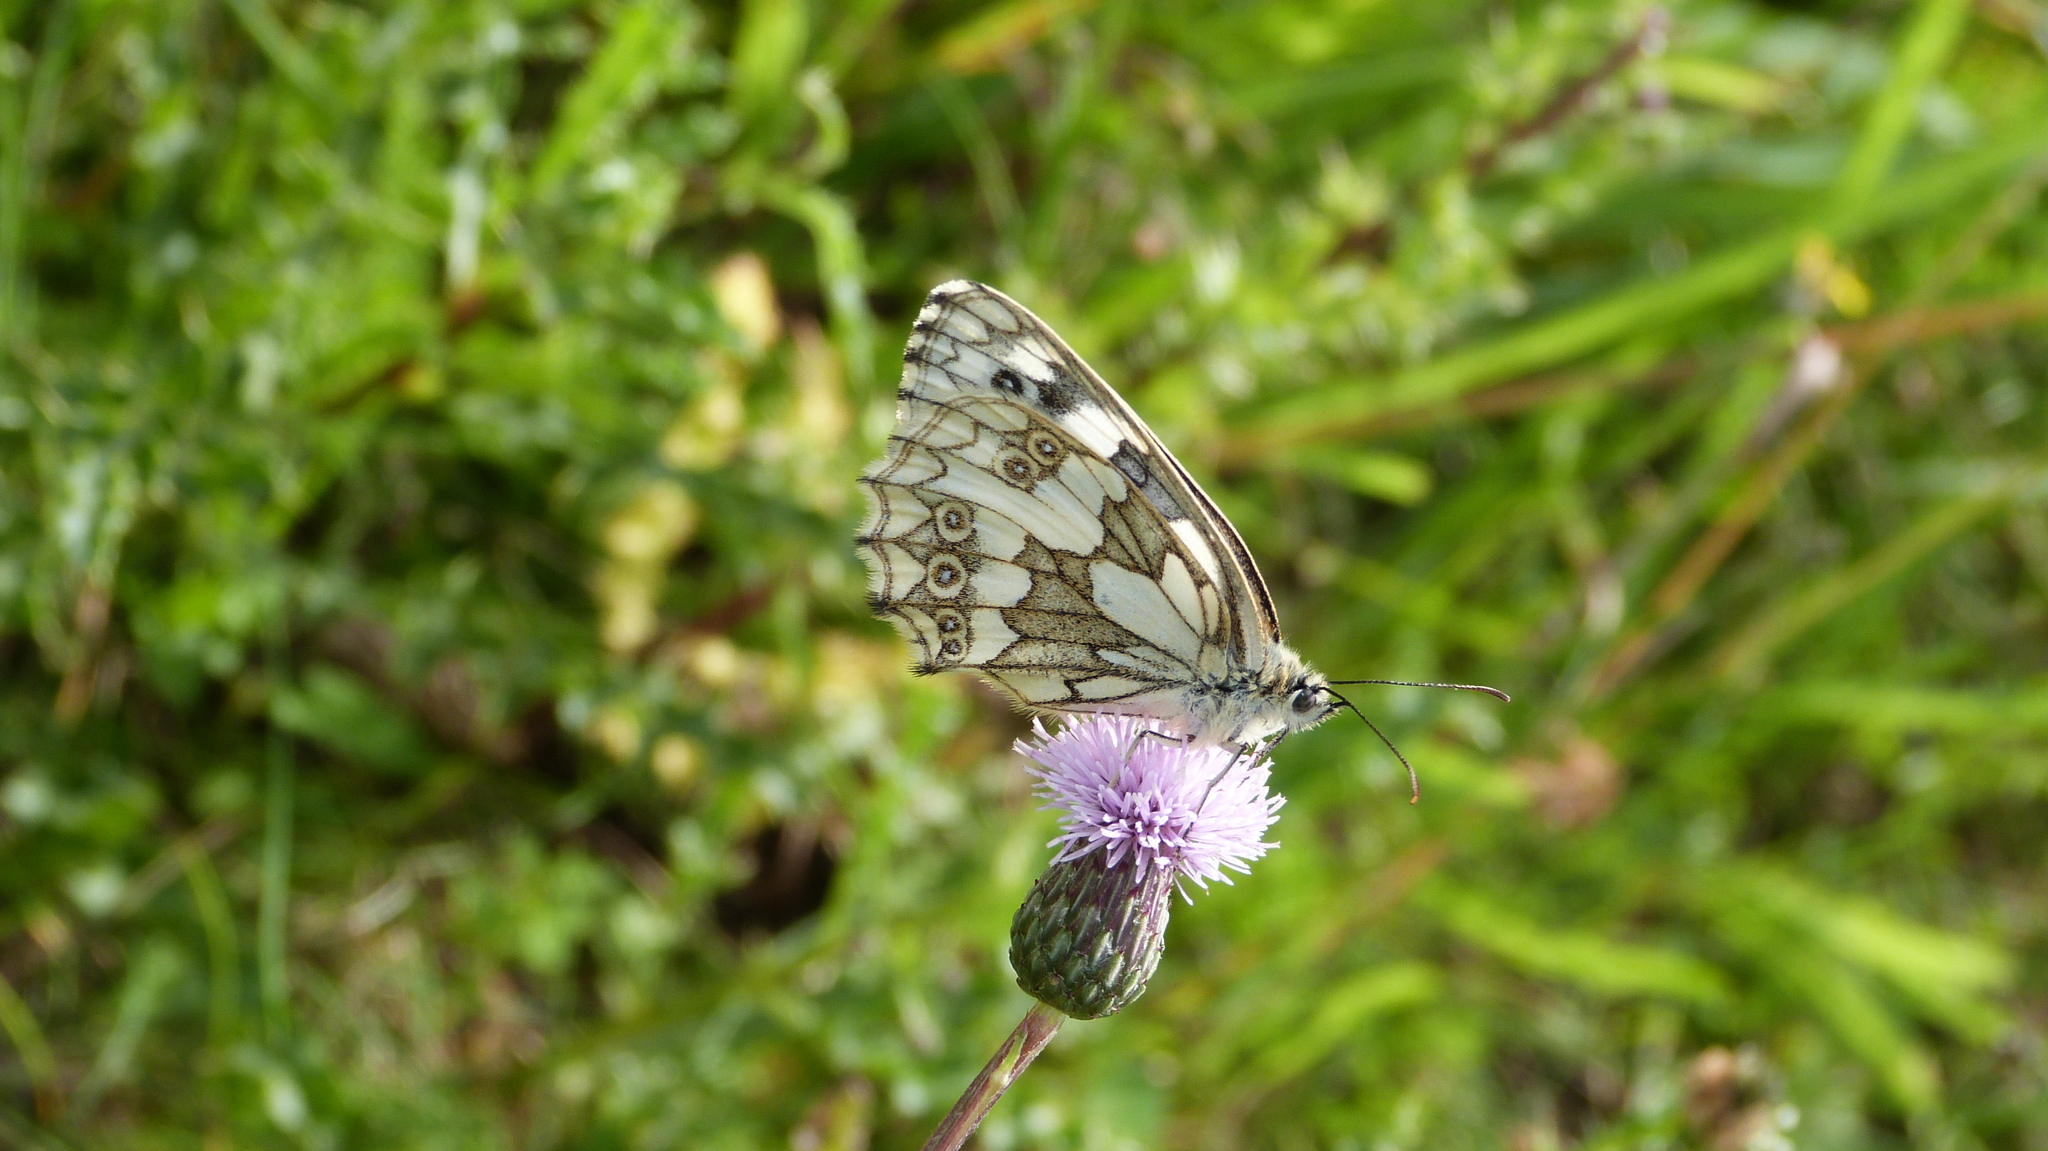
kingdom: Animalia
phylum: Arthropoda
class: Insecta
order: Lepidoptera
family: Nymphalidae
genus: Melanargia
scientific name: Melanargia galathea
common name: Marbled white
